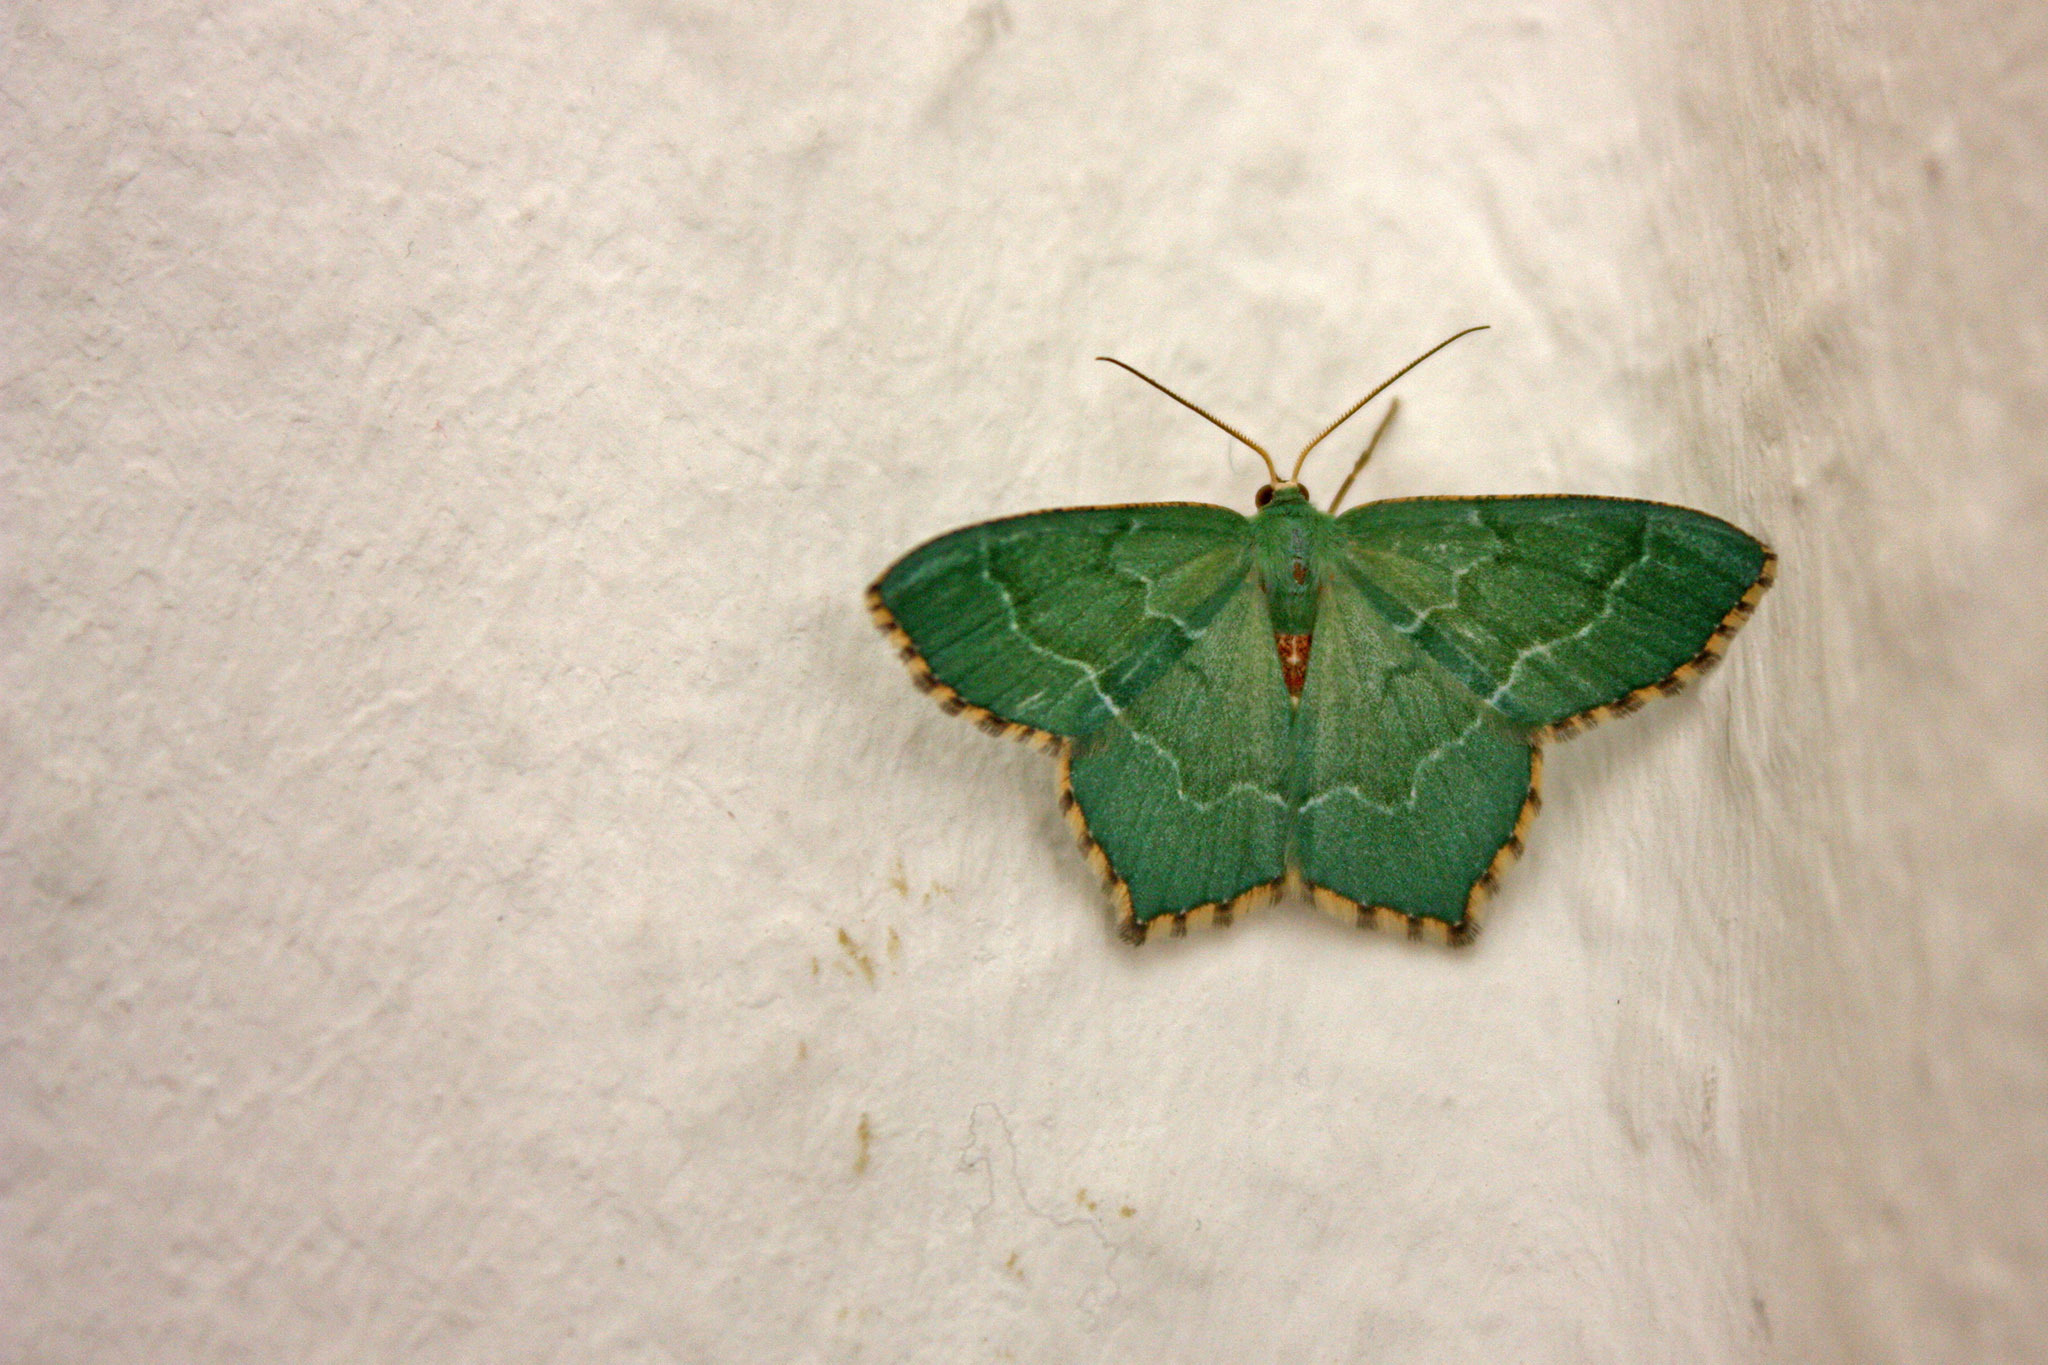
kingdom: Animalia
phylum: Arthropoda
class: Insecta
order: Lepidoptera
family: Geometridae
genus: Hemithea
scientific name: Hemithea aestivaria
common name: Common emerald
